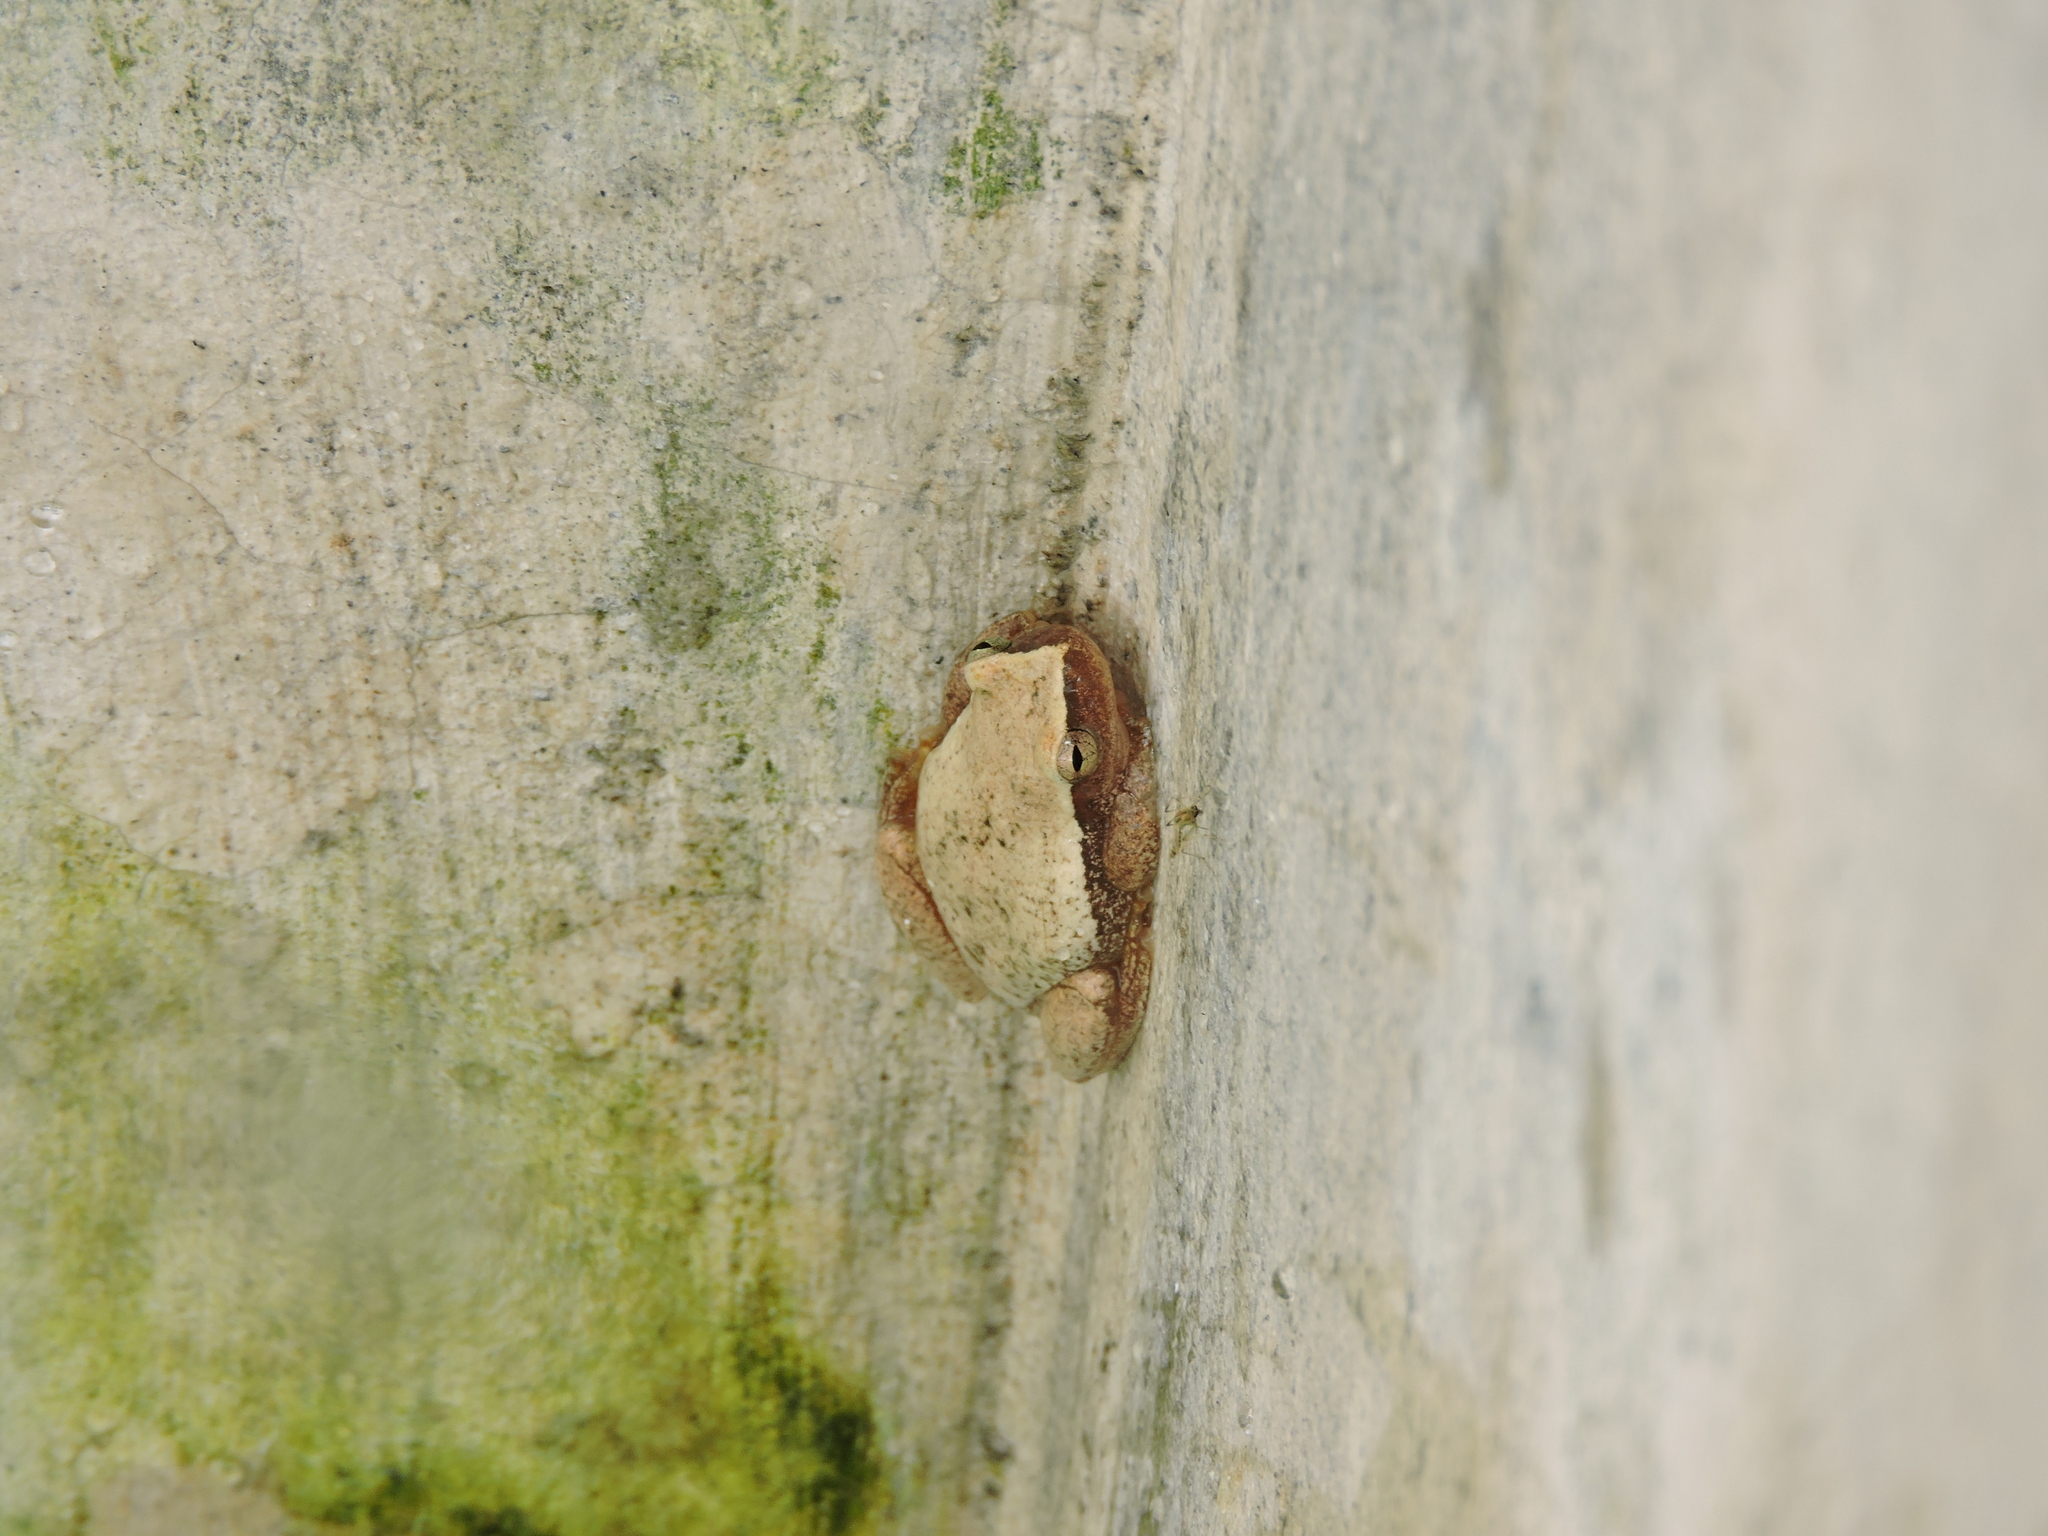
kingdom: Animalia
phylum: Chordata
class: Amphibia
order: Anura
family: Hylidae
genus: Tlalocohyla
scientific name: Tlalocohyla smithii
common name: Dwarf mexican treefrog
